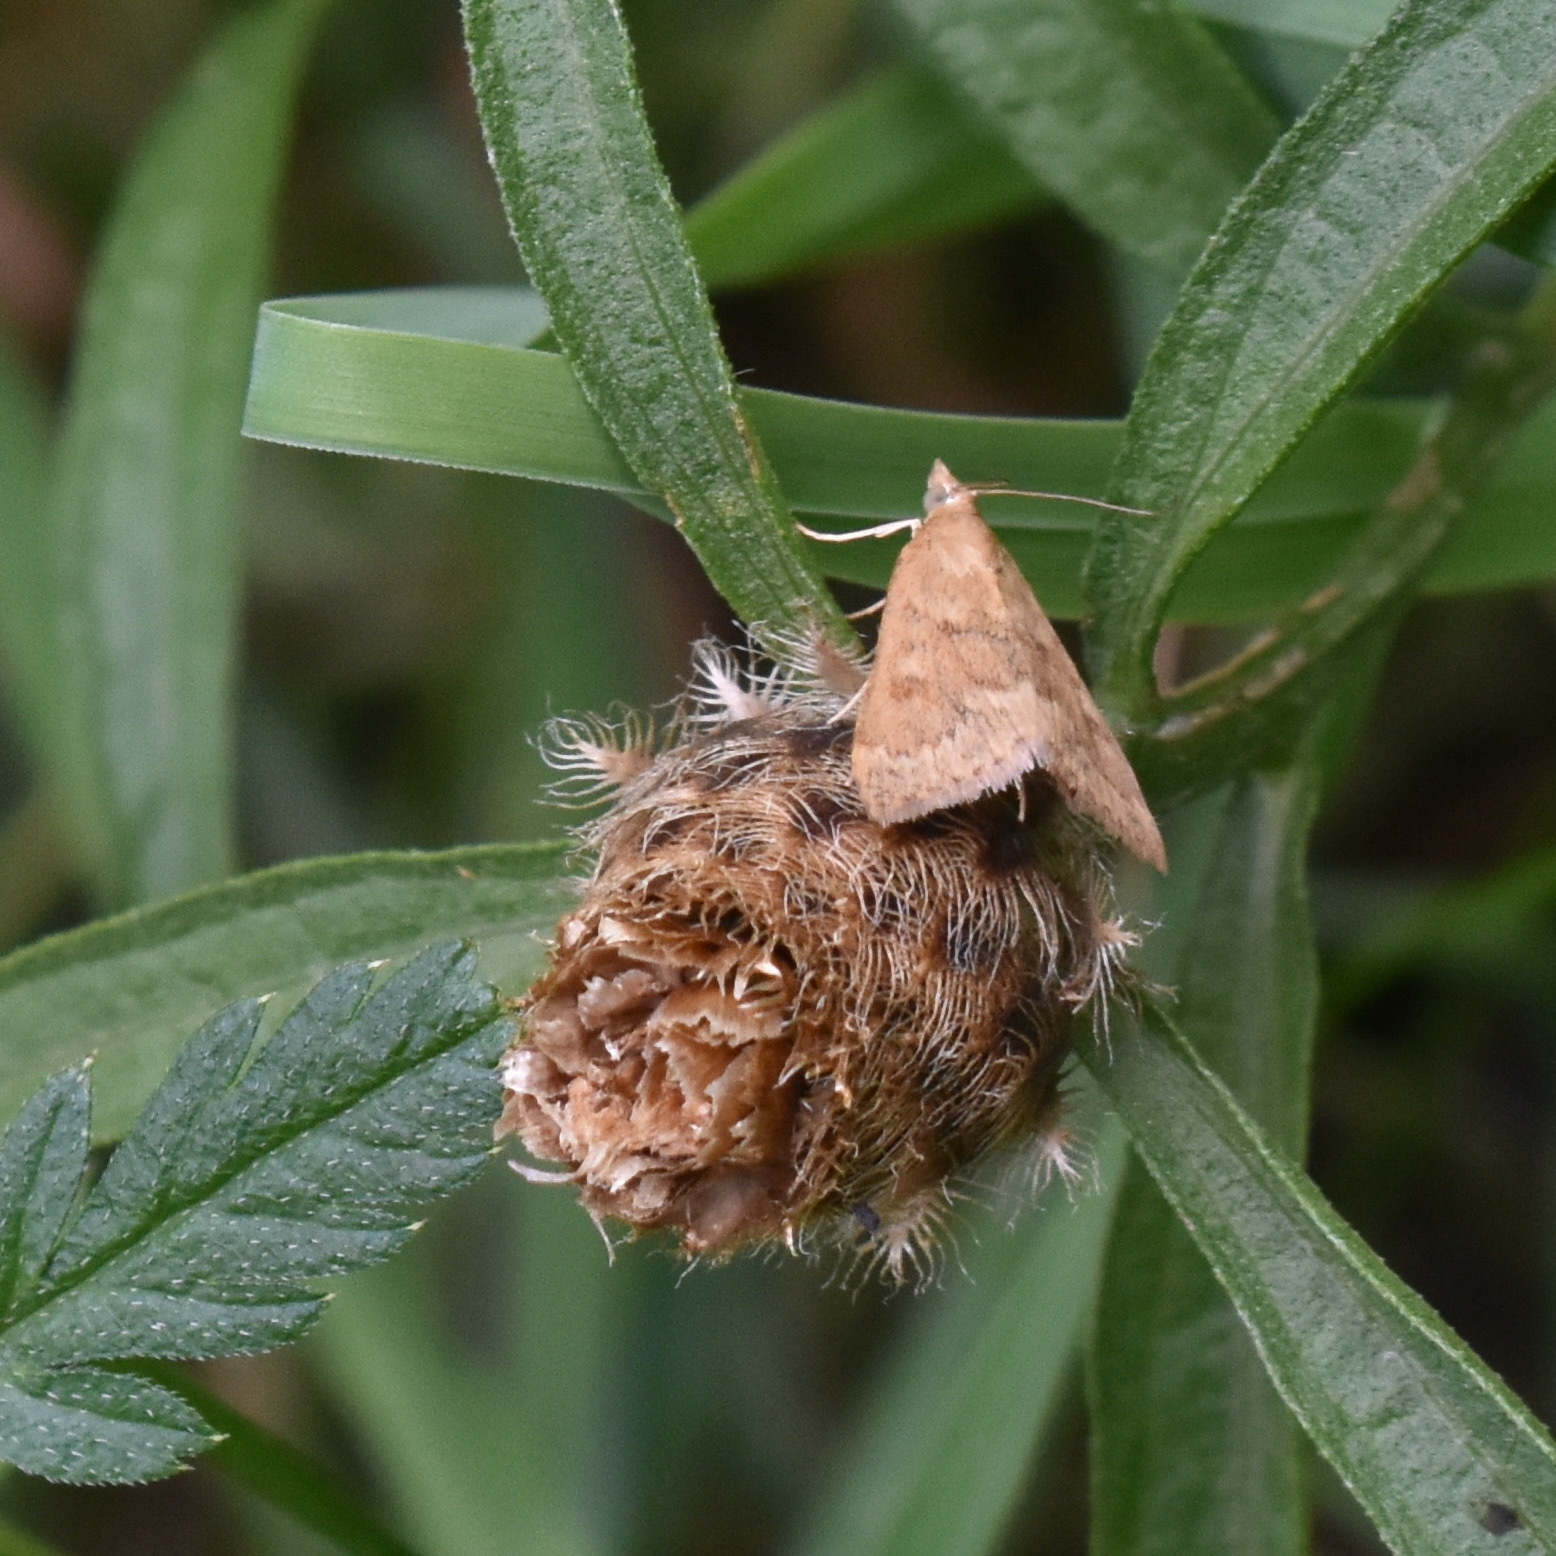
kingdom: Animalia
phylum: Arthropoda
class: Insecta
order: Lepidoptera
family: Crambidae
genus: Achyra
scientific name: Achyra rantalis
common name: Garden webworm
